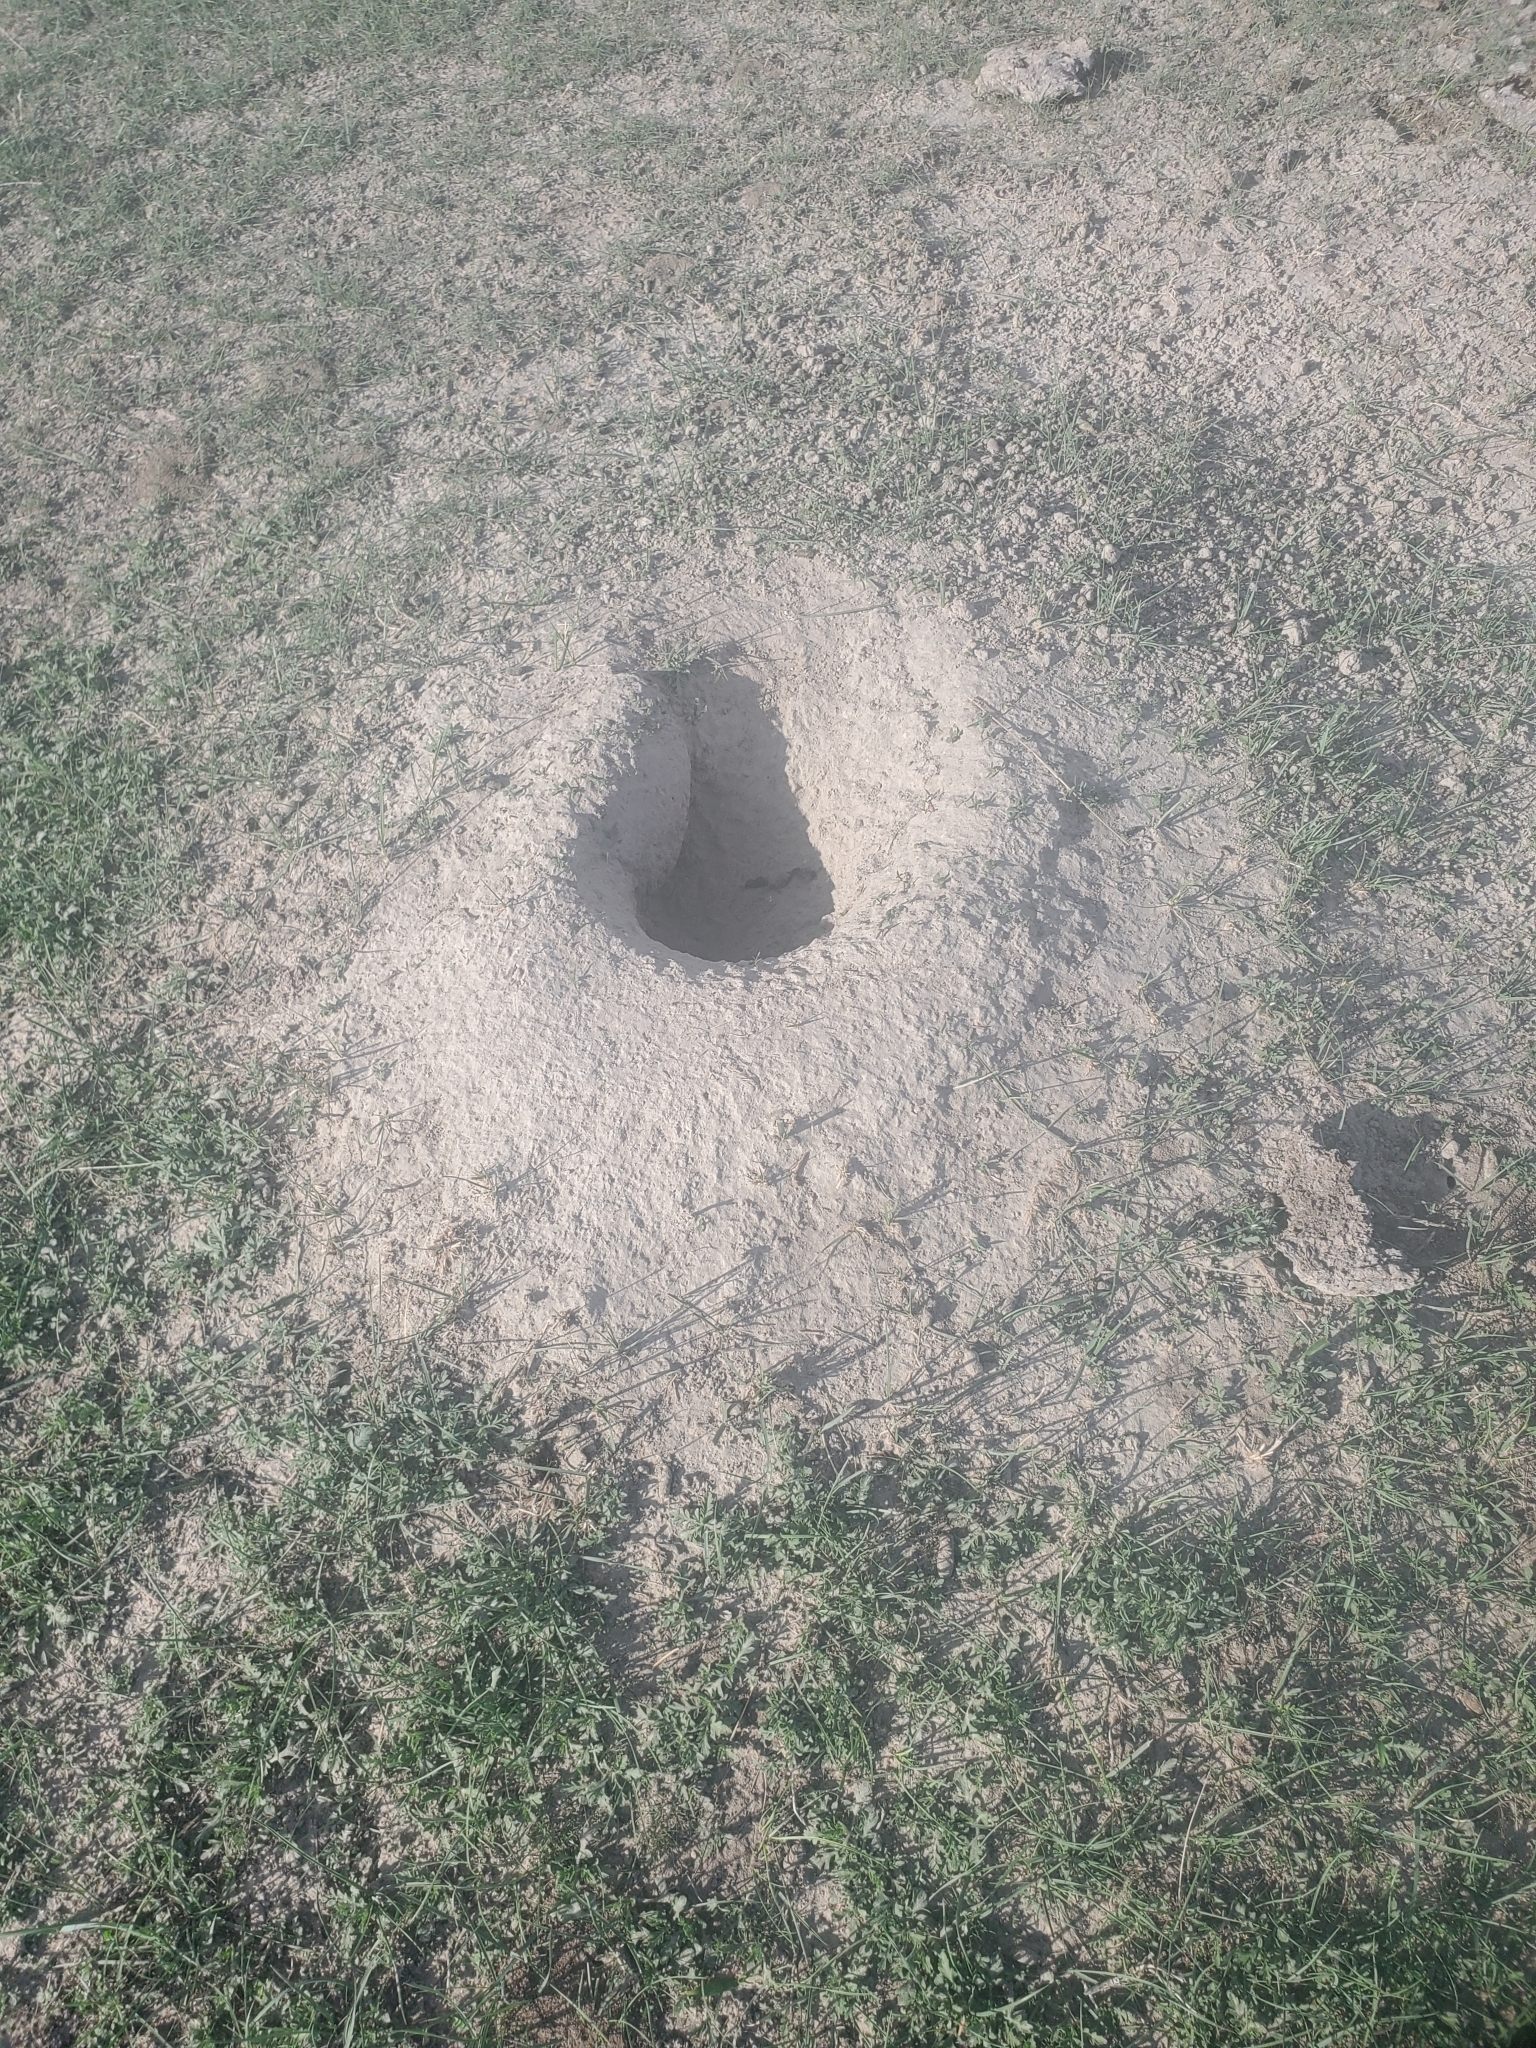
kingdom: Animalia
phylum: Chordata
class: Mammalia
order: Rodentia
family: Sciuridae
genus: Cynomys
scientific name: Cynomys ludovicianus
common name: Black-tailed prairie dog
